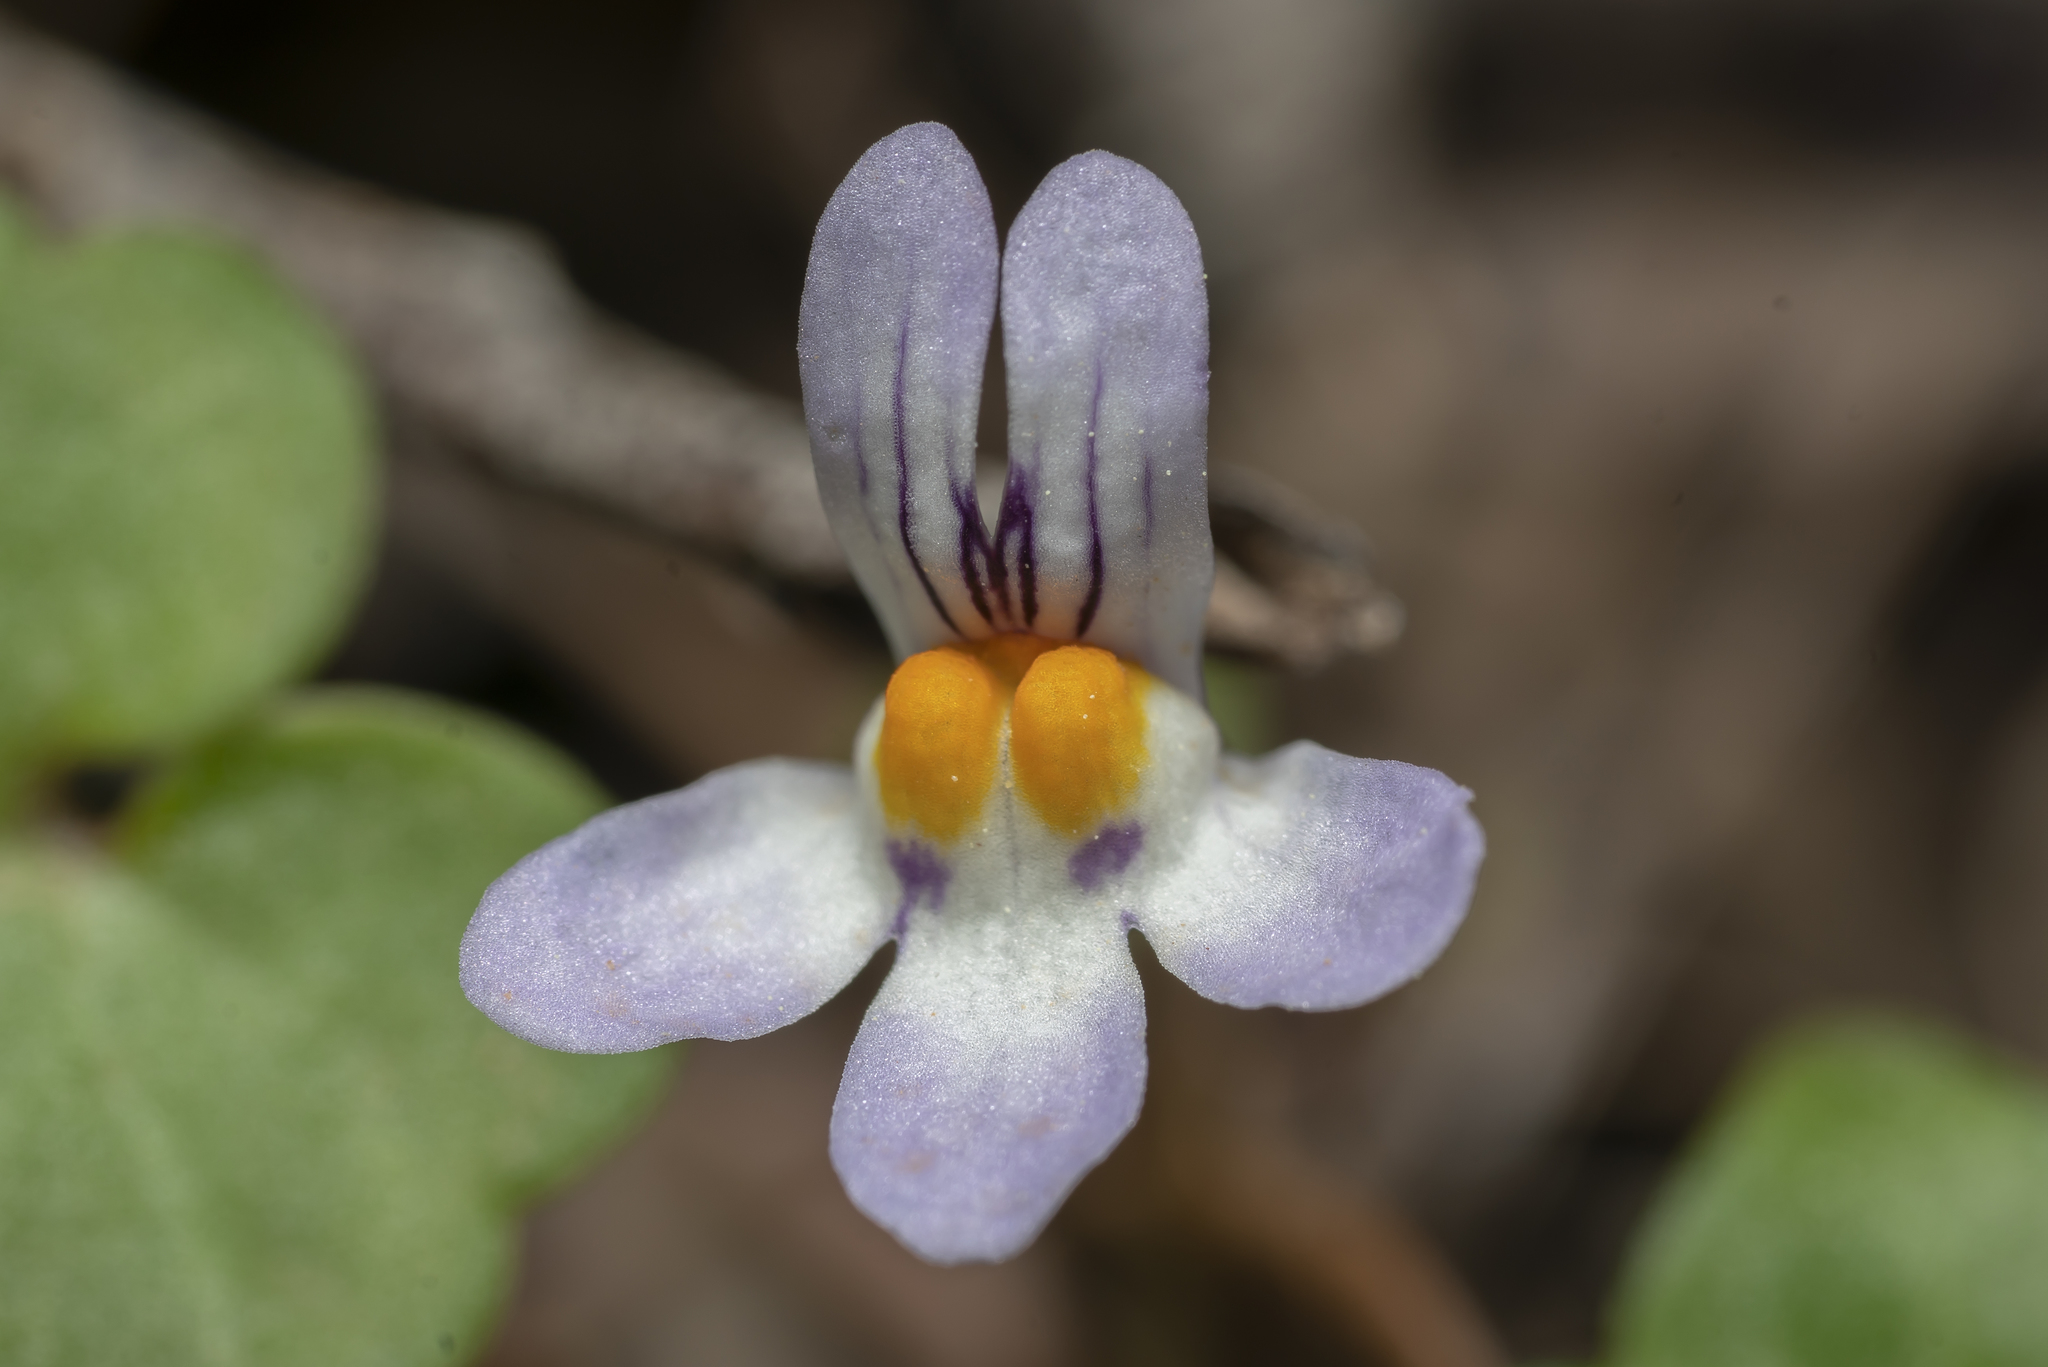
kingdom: Plantae
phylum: Tracheophyta
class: Magnoliopsida
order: Lamiales
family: Plantaginaceae
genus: Cymbalaria
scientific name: Cymbalaria longipes
